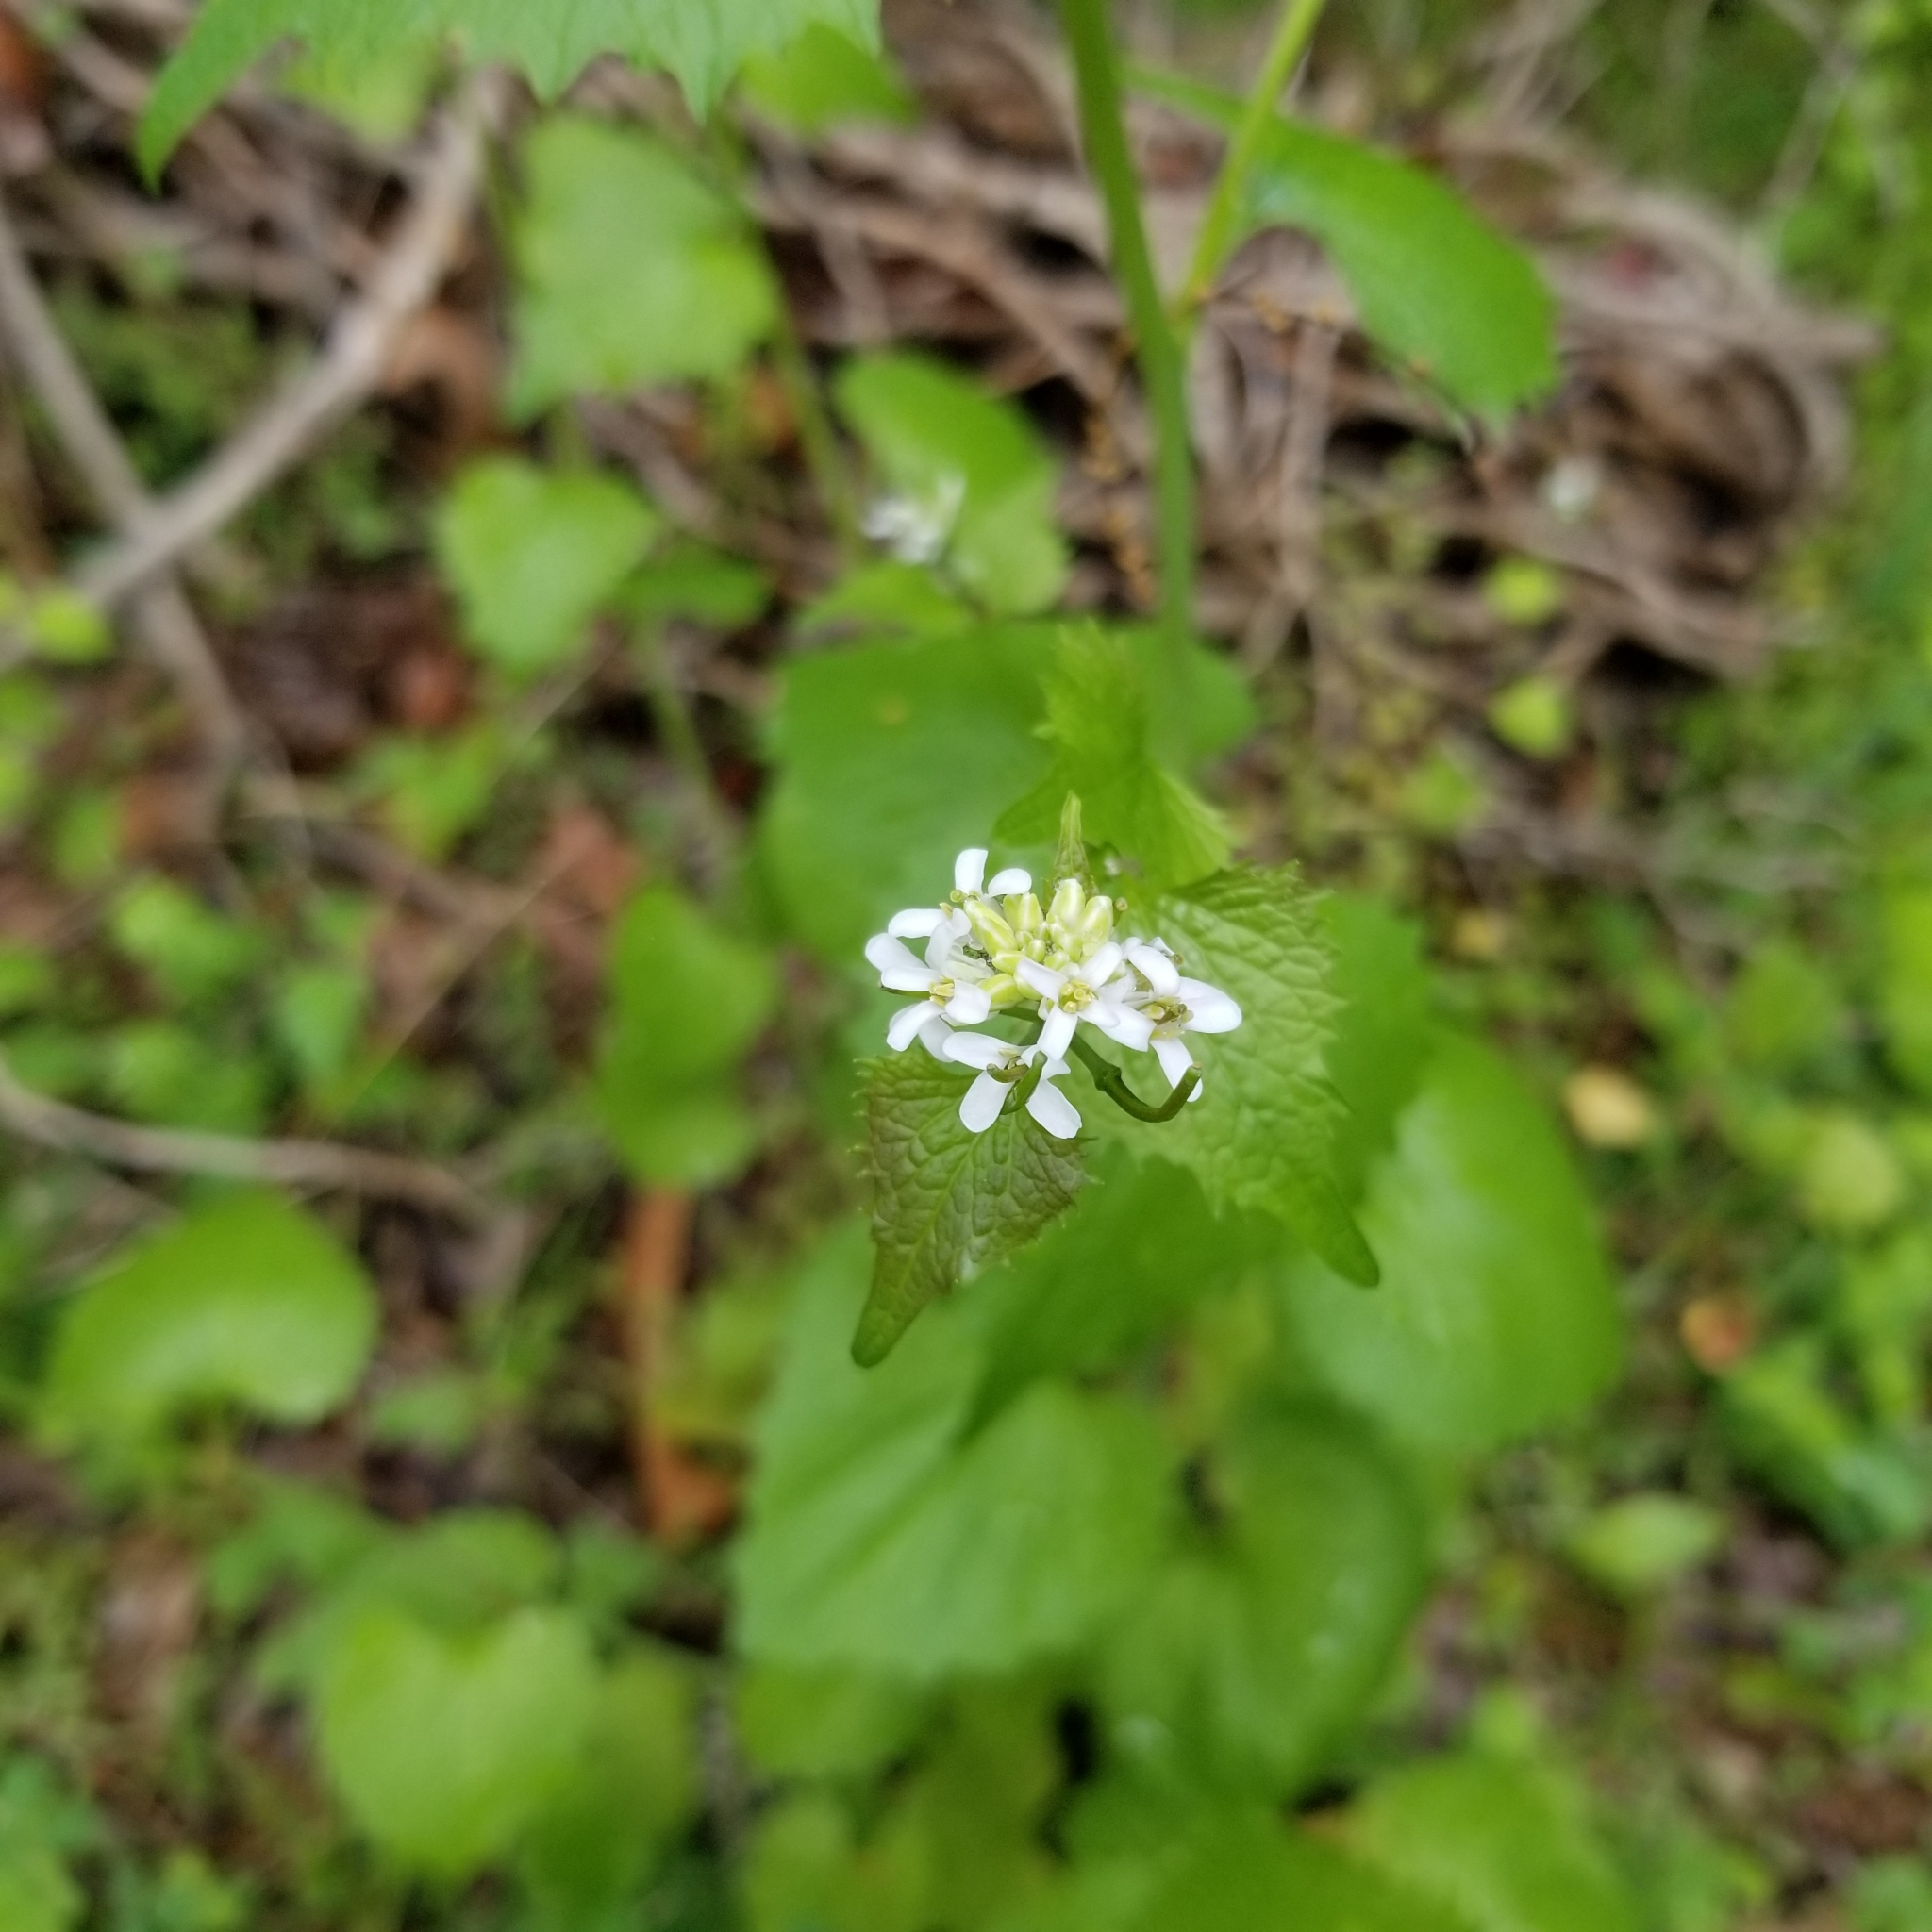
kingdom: Plantae
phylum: Tracheophyta
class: Magnoliopsida
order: Brassicales
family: Brassicaceae
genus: Alliaria
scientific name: Alliaria petiolata
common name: Garlic mustard
